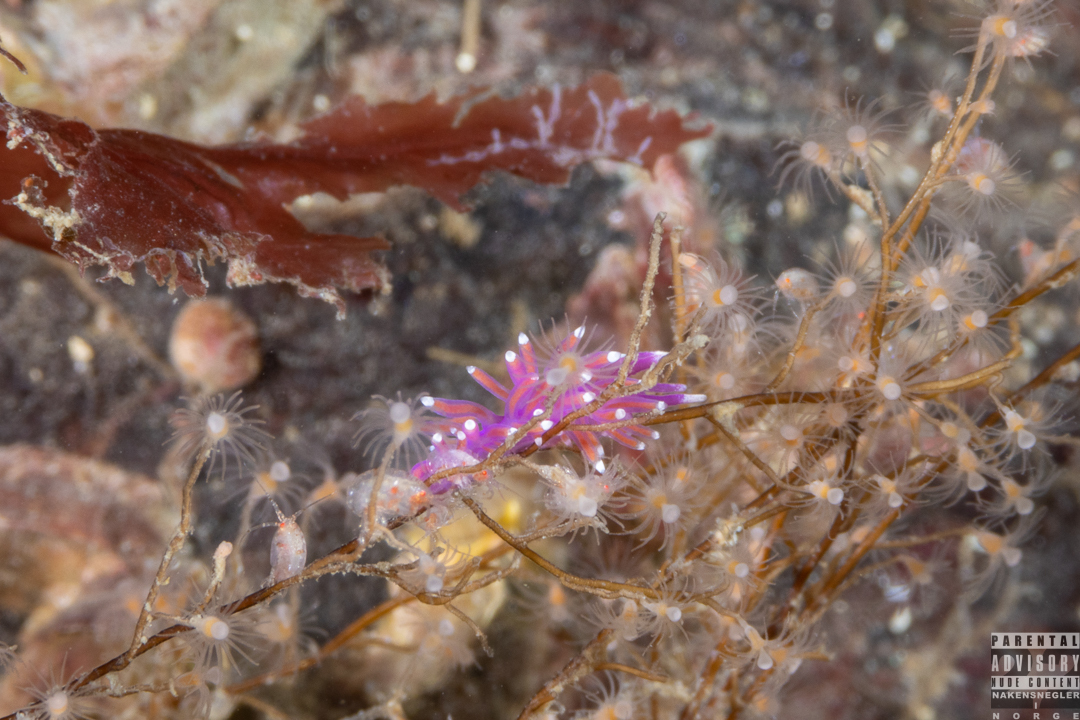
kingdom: Animalia
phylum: Mollusca
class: Gastropoda
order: Nudibranchia
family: Flabellinidae
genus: Edmundsella
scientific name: Edmundsella pedata
